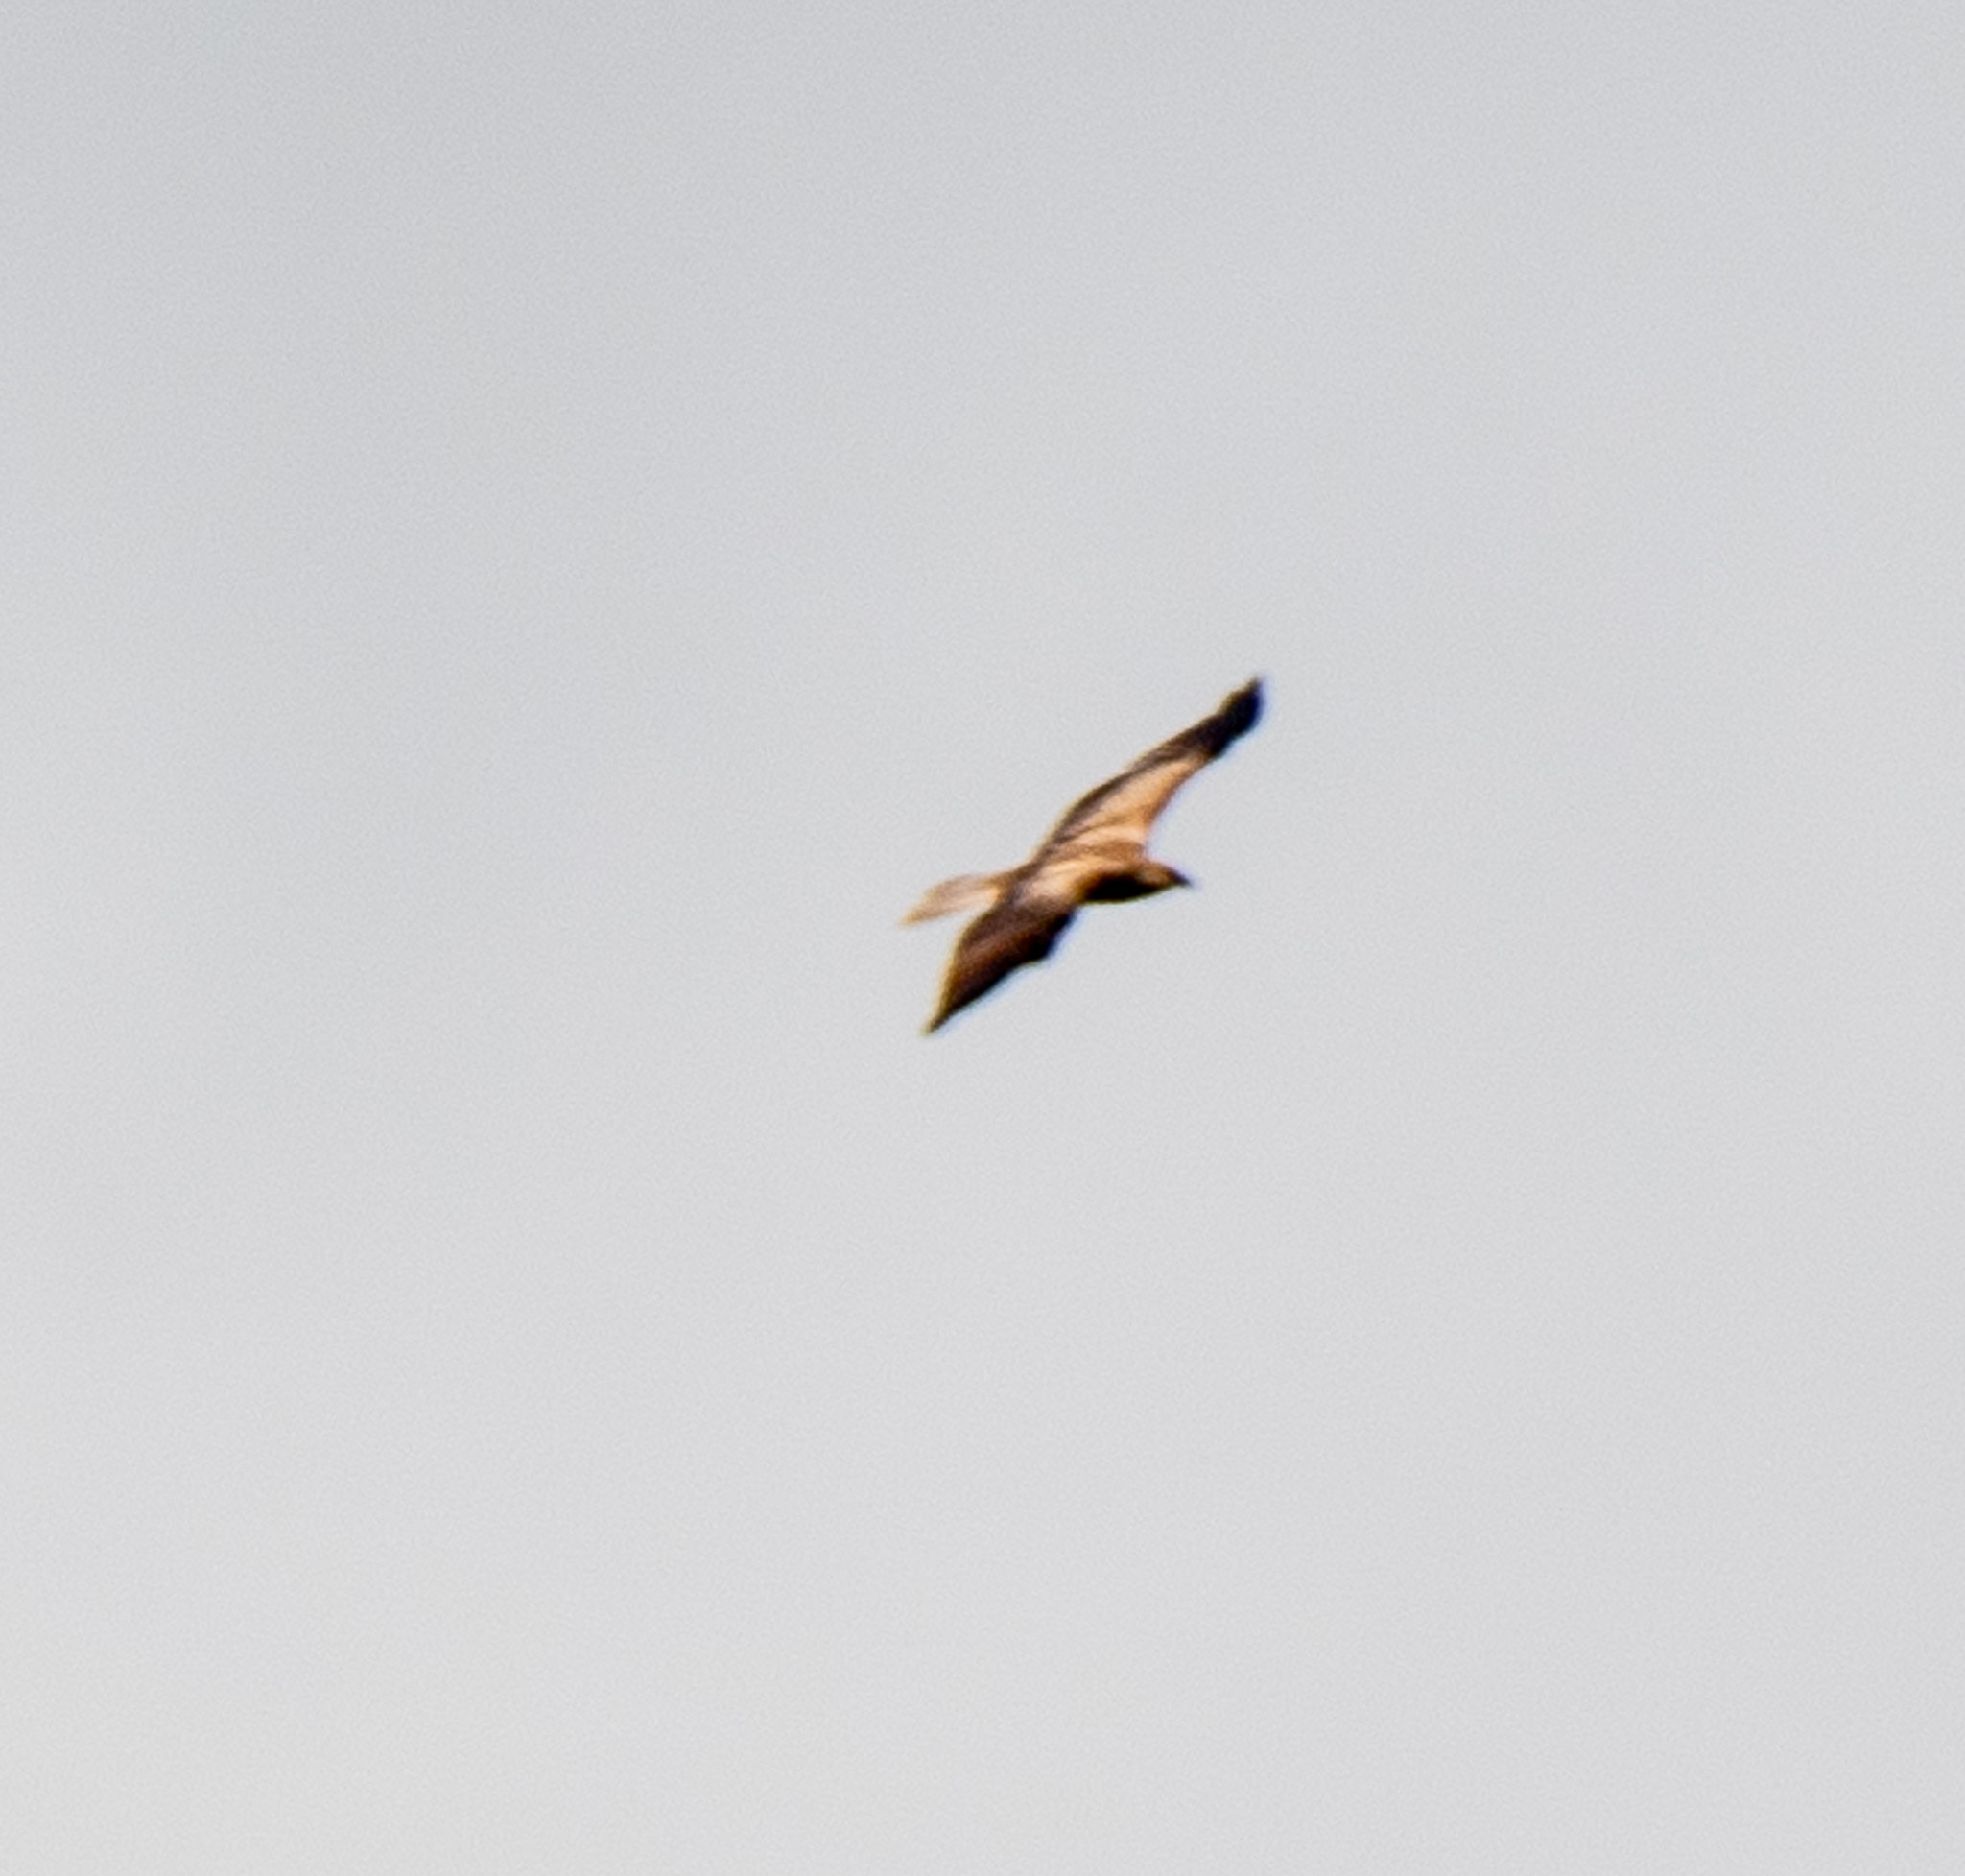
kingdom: Animalia
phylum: Chordata
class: Aves
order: Accipitriformes
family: Accipitridae
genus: Haliastur
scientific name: Haliastur sphenurus
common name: Whistling kite
